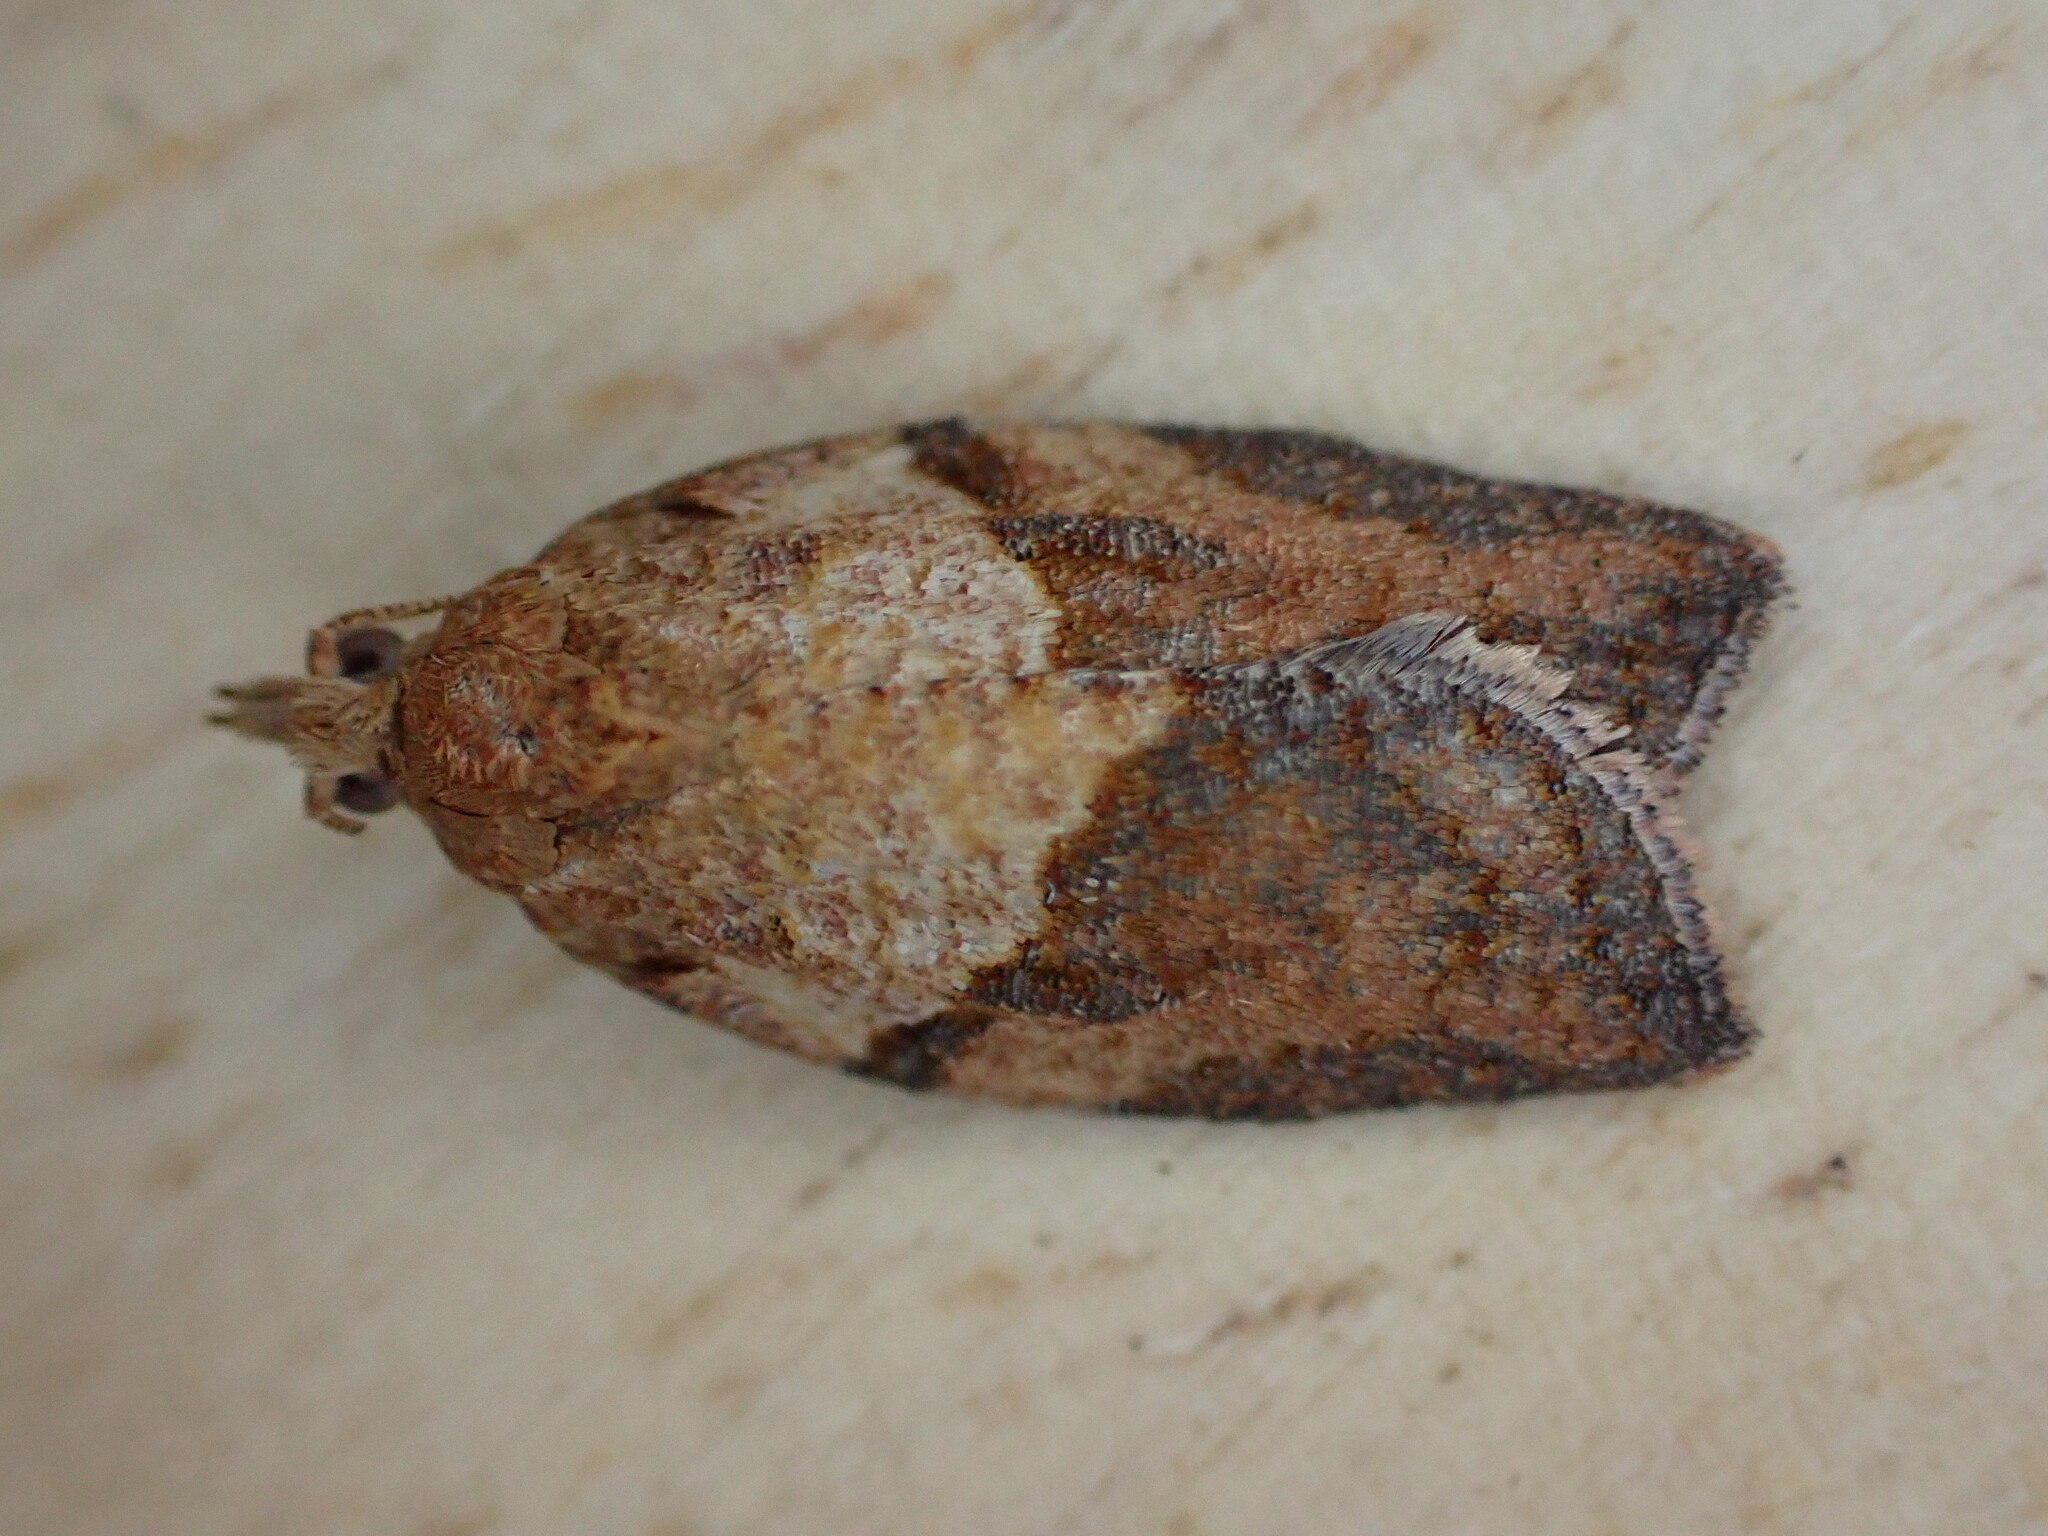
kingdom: Animalia
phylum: Arthropoda
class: Insecta
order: Lepidoptera
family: Tortricidae
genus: Epiphyas
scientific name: Epiphyas postvittana
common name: Light brown apple moth
